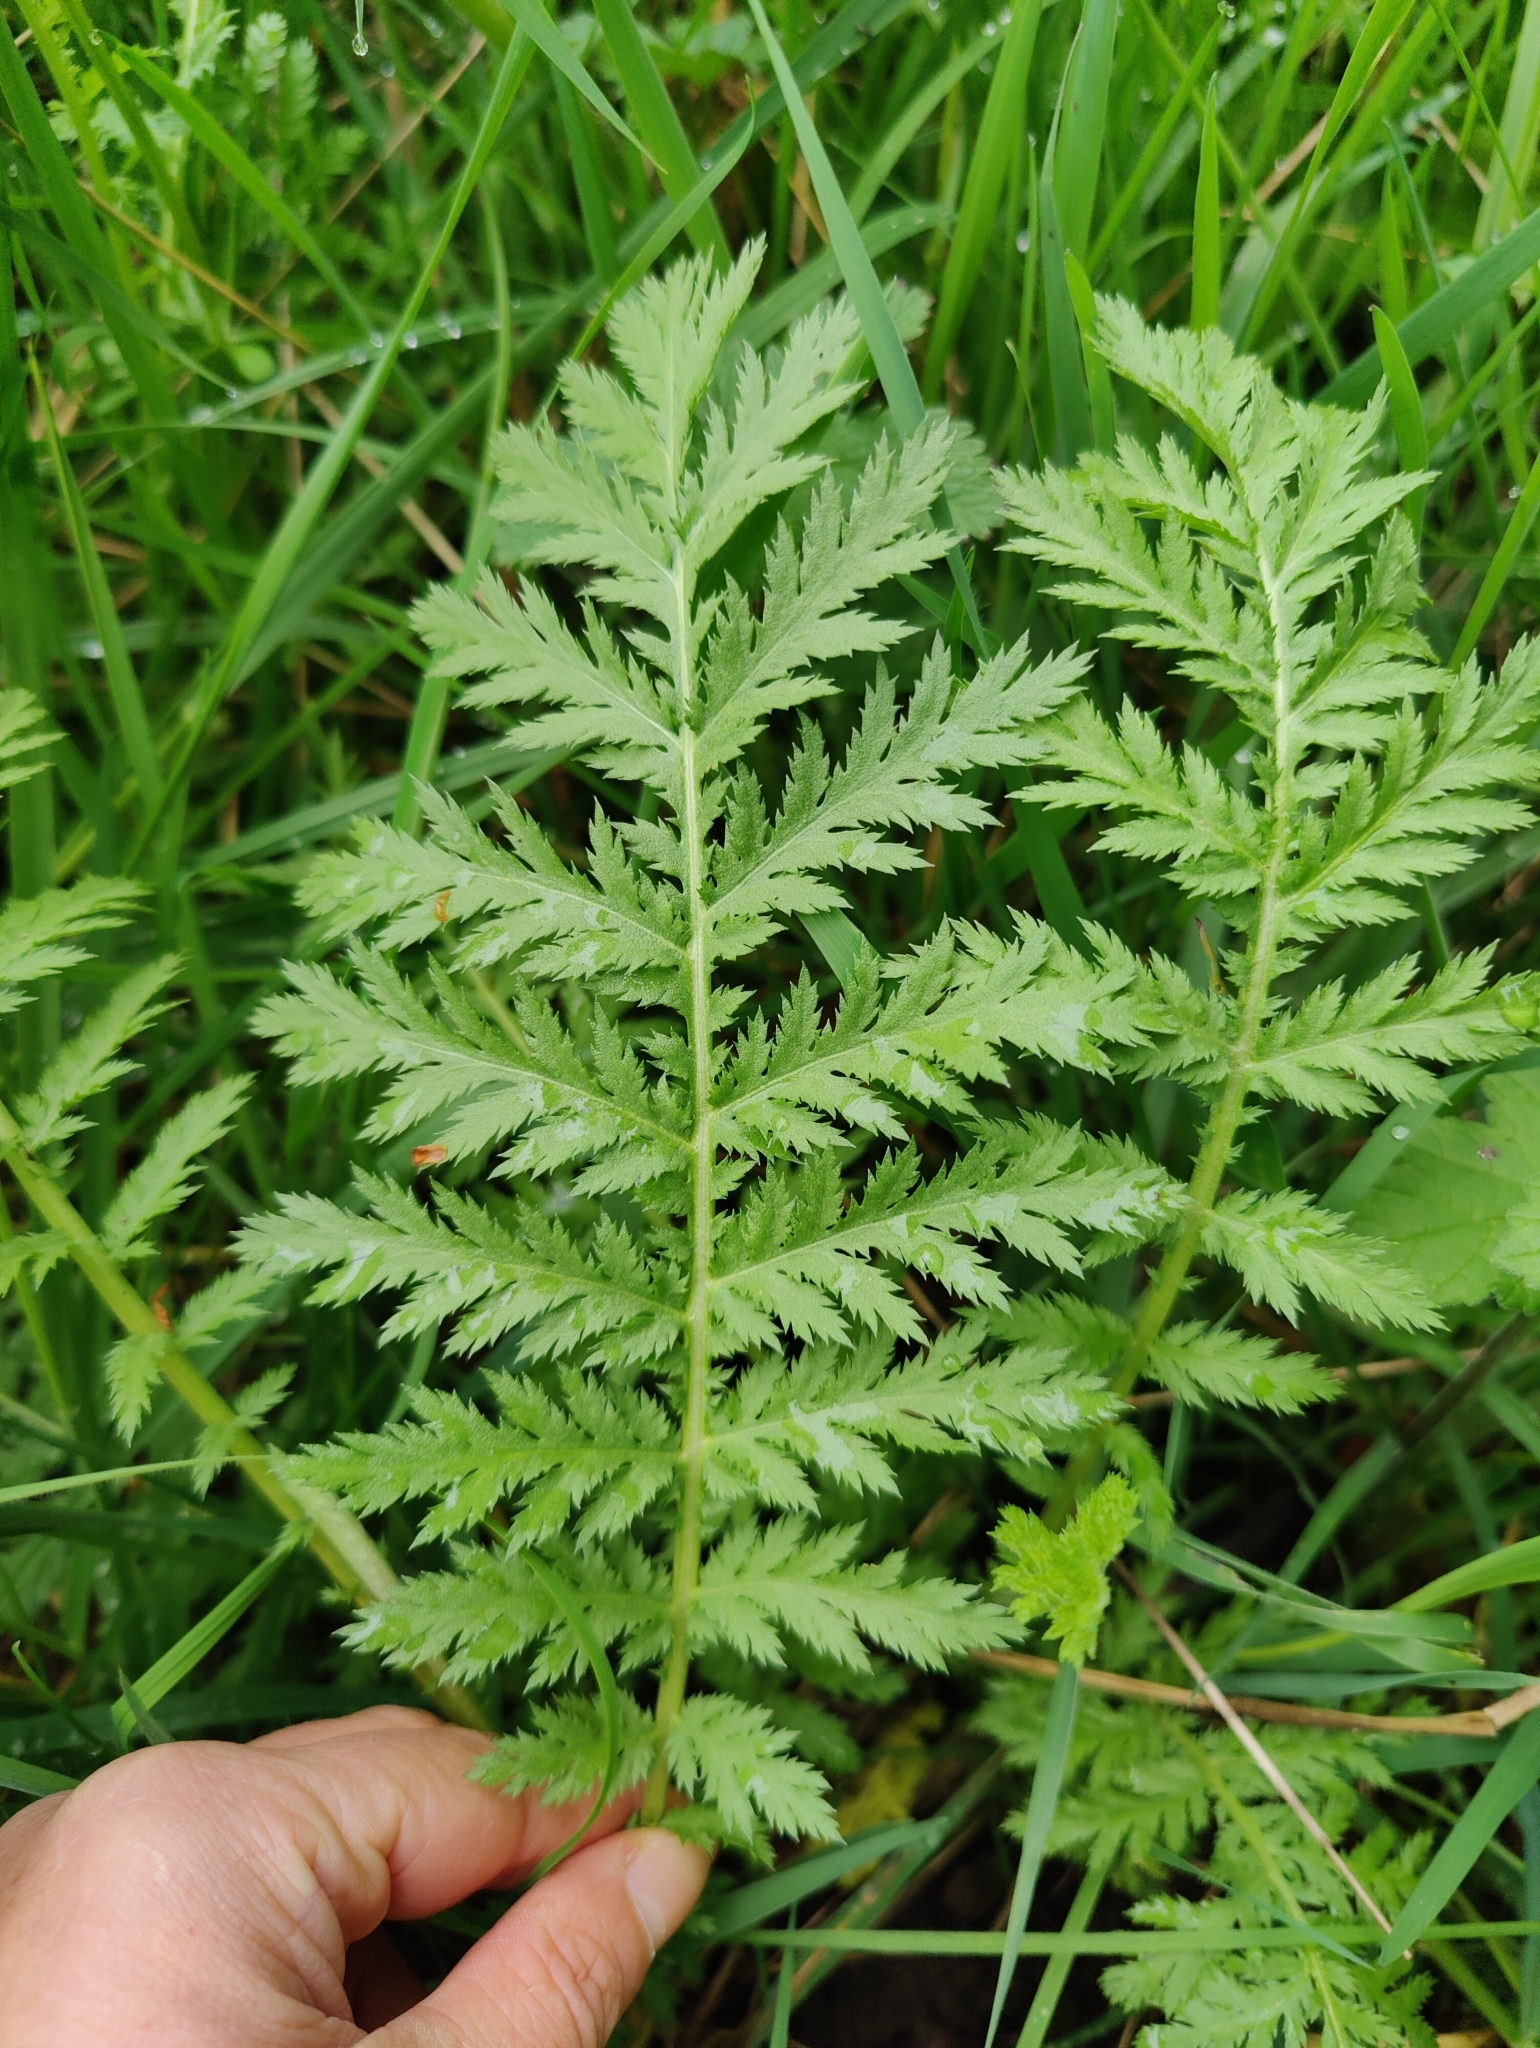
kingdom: Plantae
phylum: Tracheophyta
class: Magnoliopsida
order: Asterales
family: Asteraceae
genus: Tanacetum
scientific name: Tanacetum vulgare
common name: Common tansy
